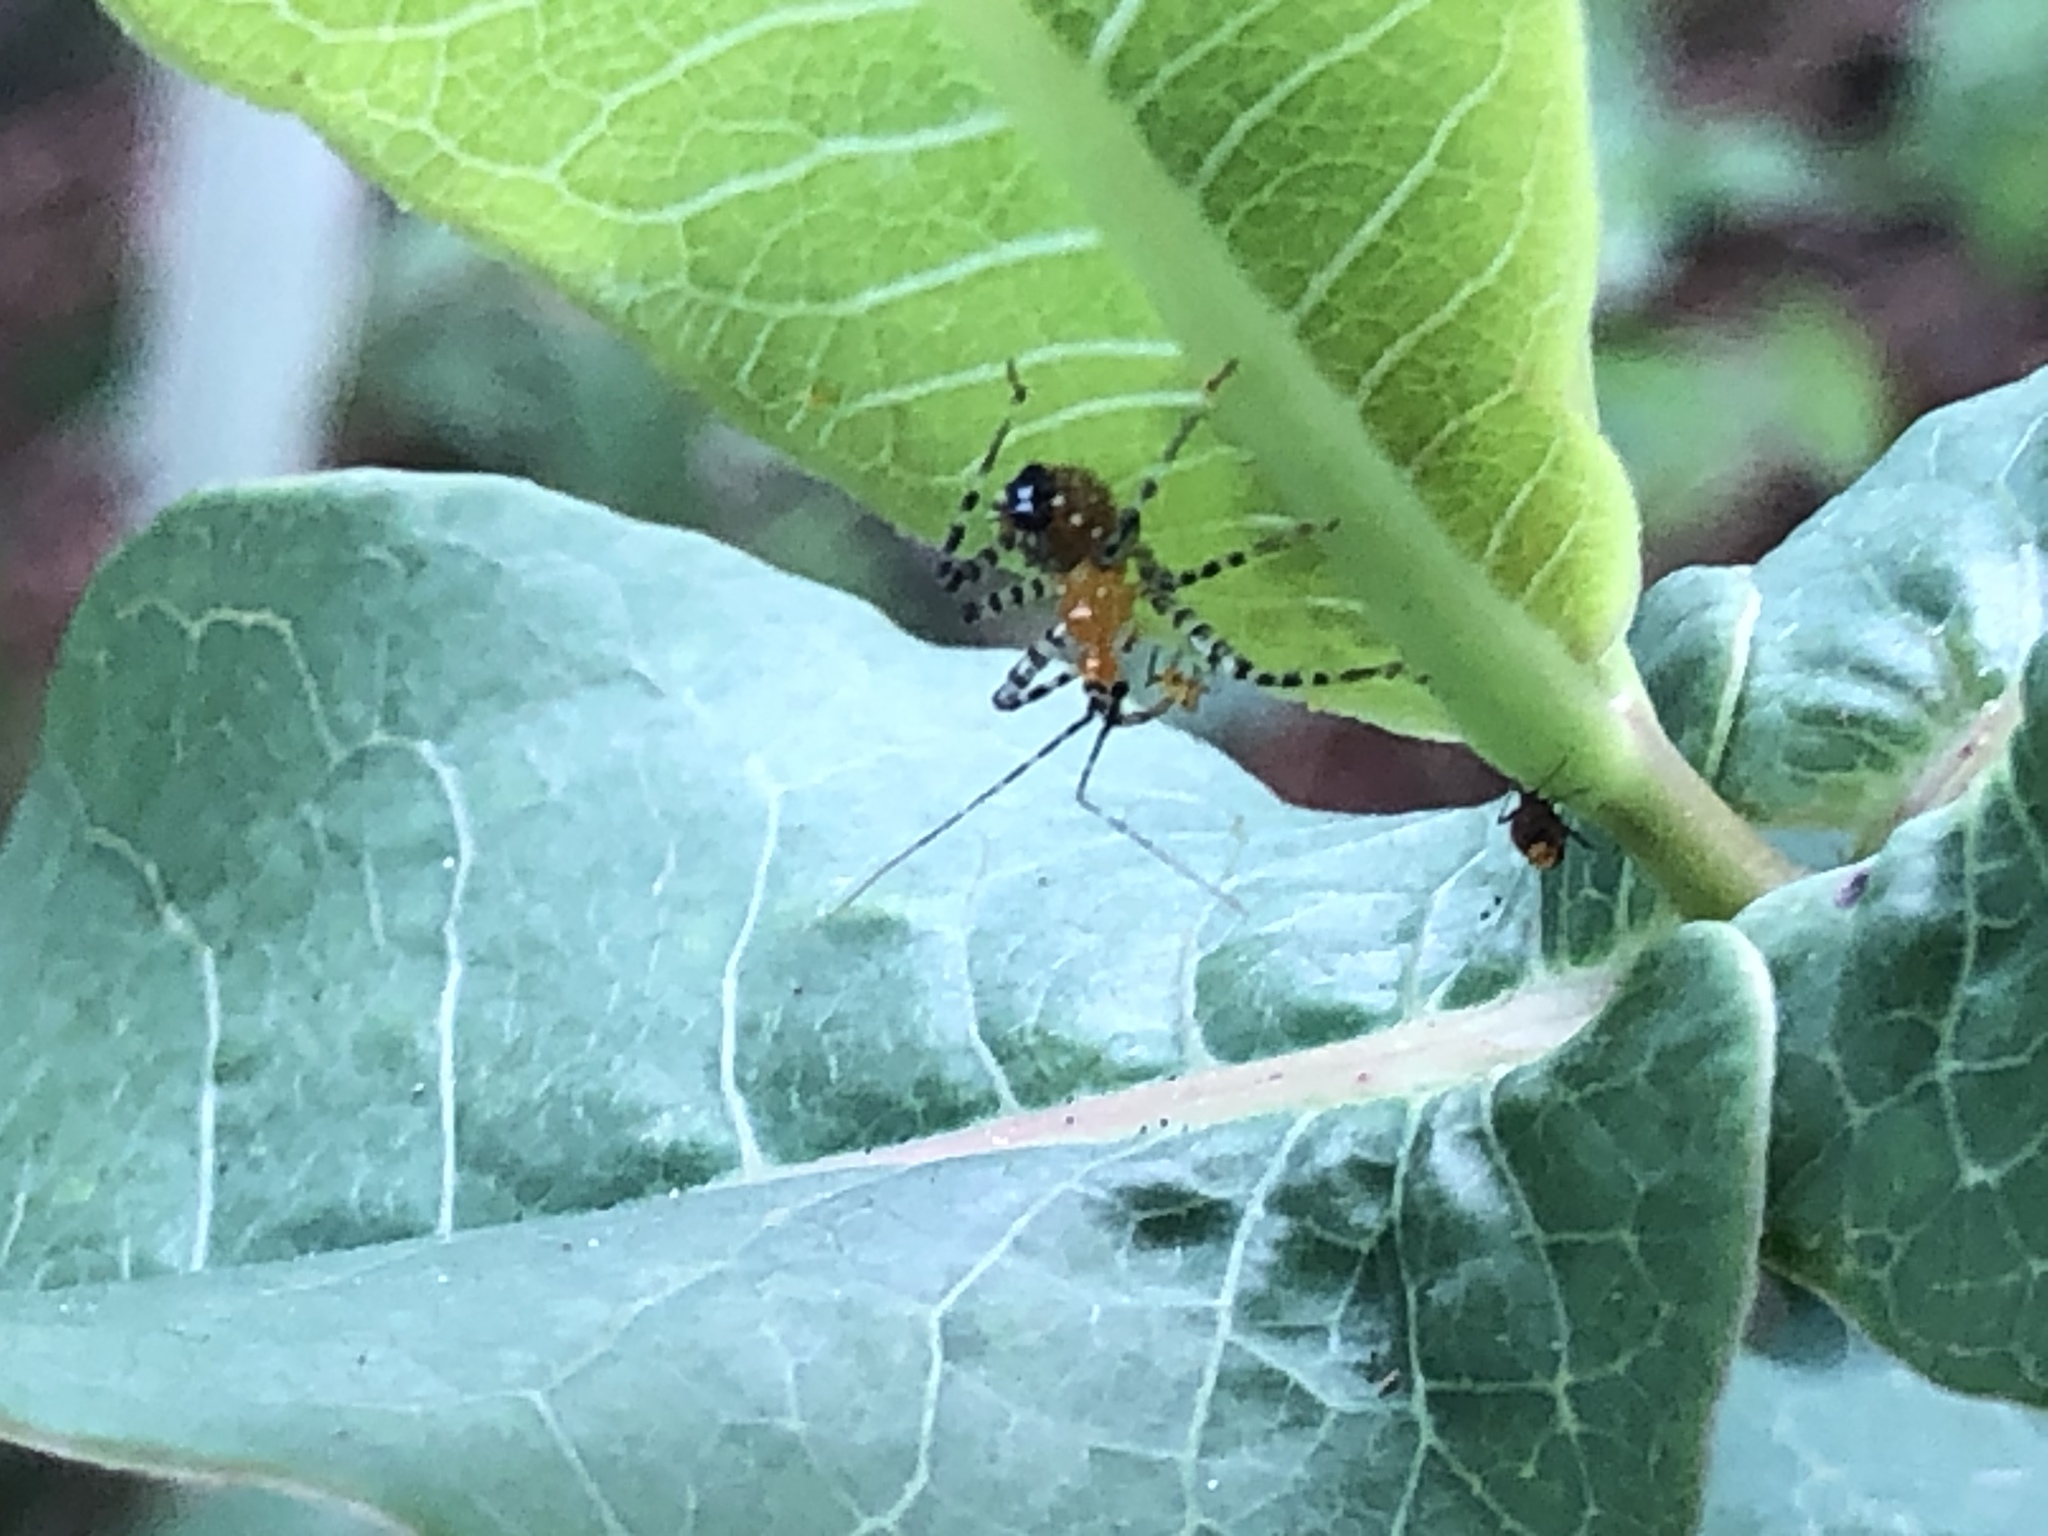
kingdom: Animalia
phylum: Arthropoda
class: Insecta
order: Hemiptera
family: Reduviidae
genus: Pselliopus
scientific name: Pselliopus cinctus
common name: Ringed assassin bug
